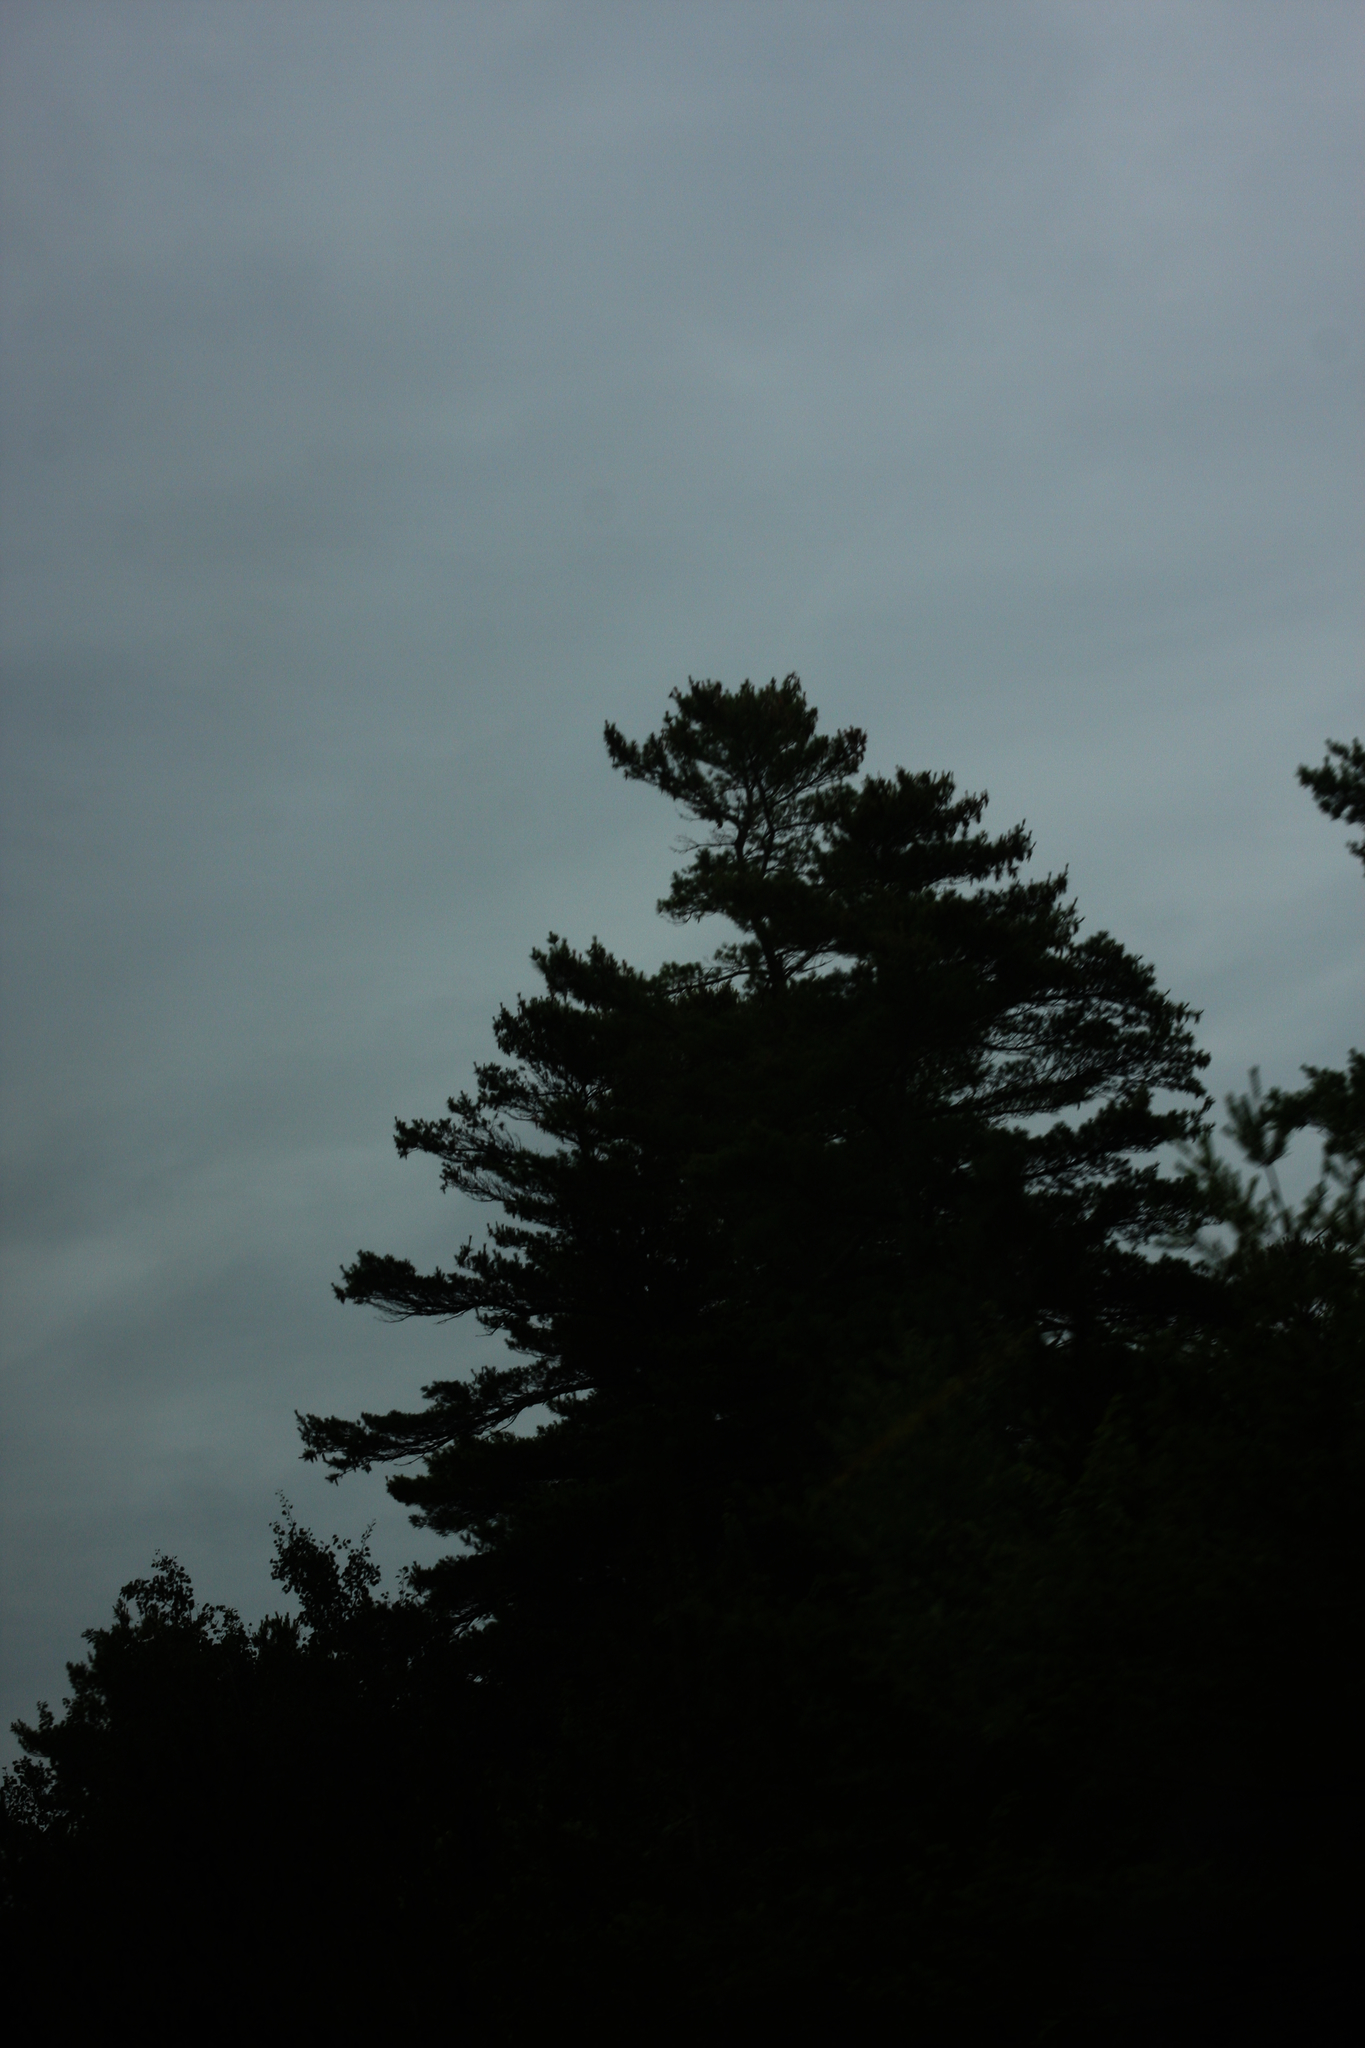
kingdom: Plantae
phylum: Tracheophyta
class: Pinopsida
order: Pinales
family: Pinaceae
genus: Pinus
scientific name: Pinus strobus
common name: Weymouth pine
